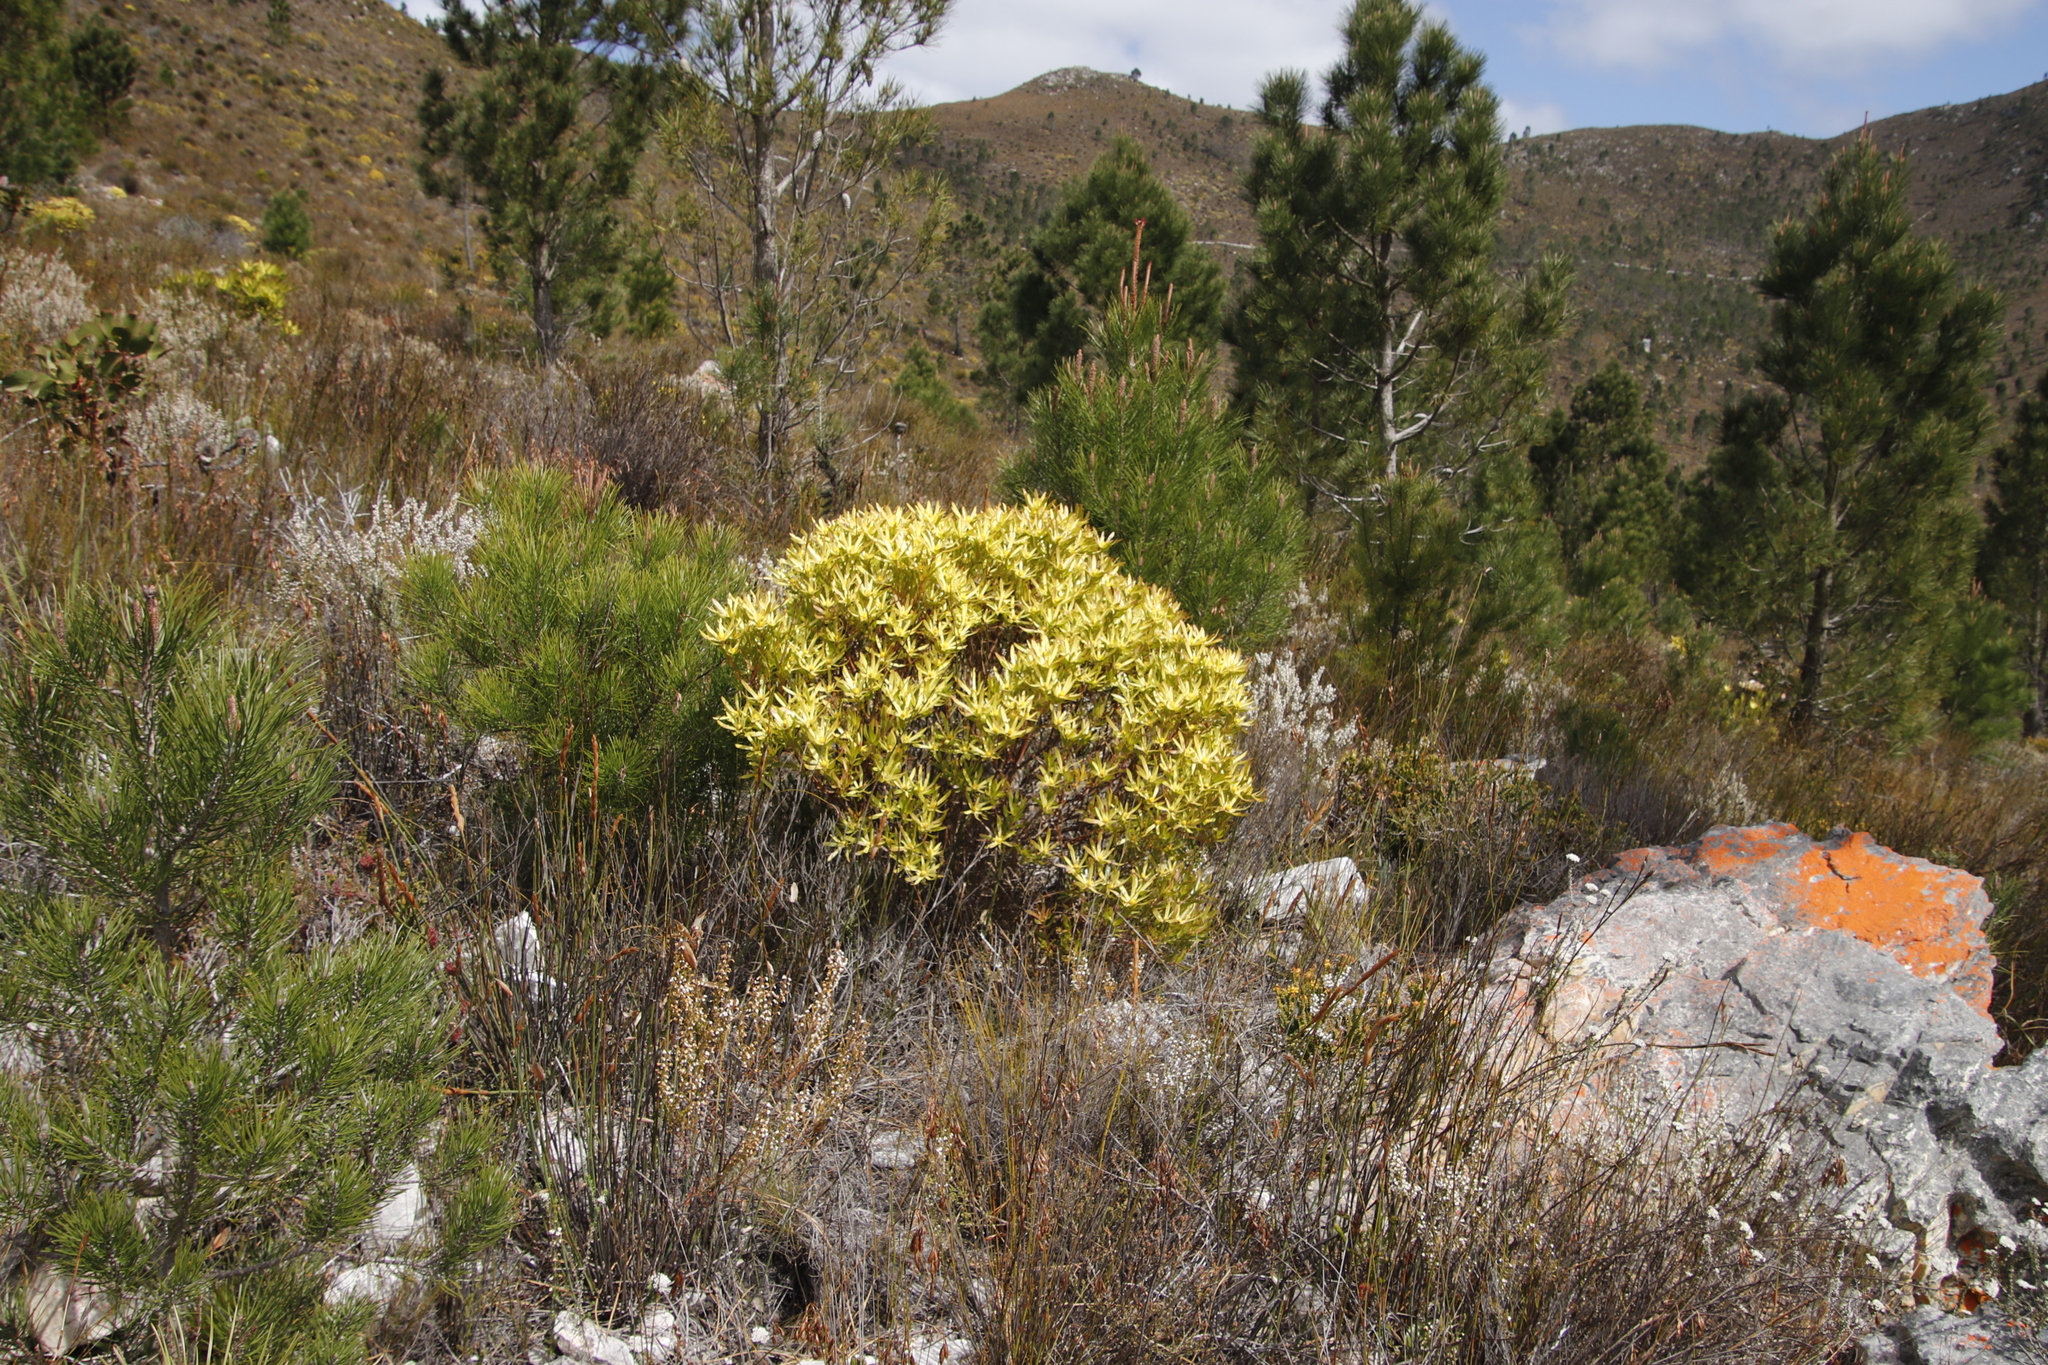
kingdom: Plantae
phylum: Tracheophyta
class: Magnoliopsida
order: Proteales
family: Proteaceae
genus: Leucadendron
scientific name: Leucadendron xanthoconus
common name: Sickle-leaf conebush
